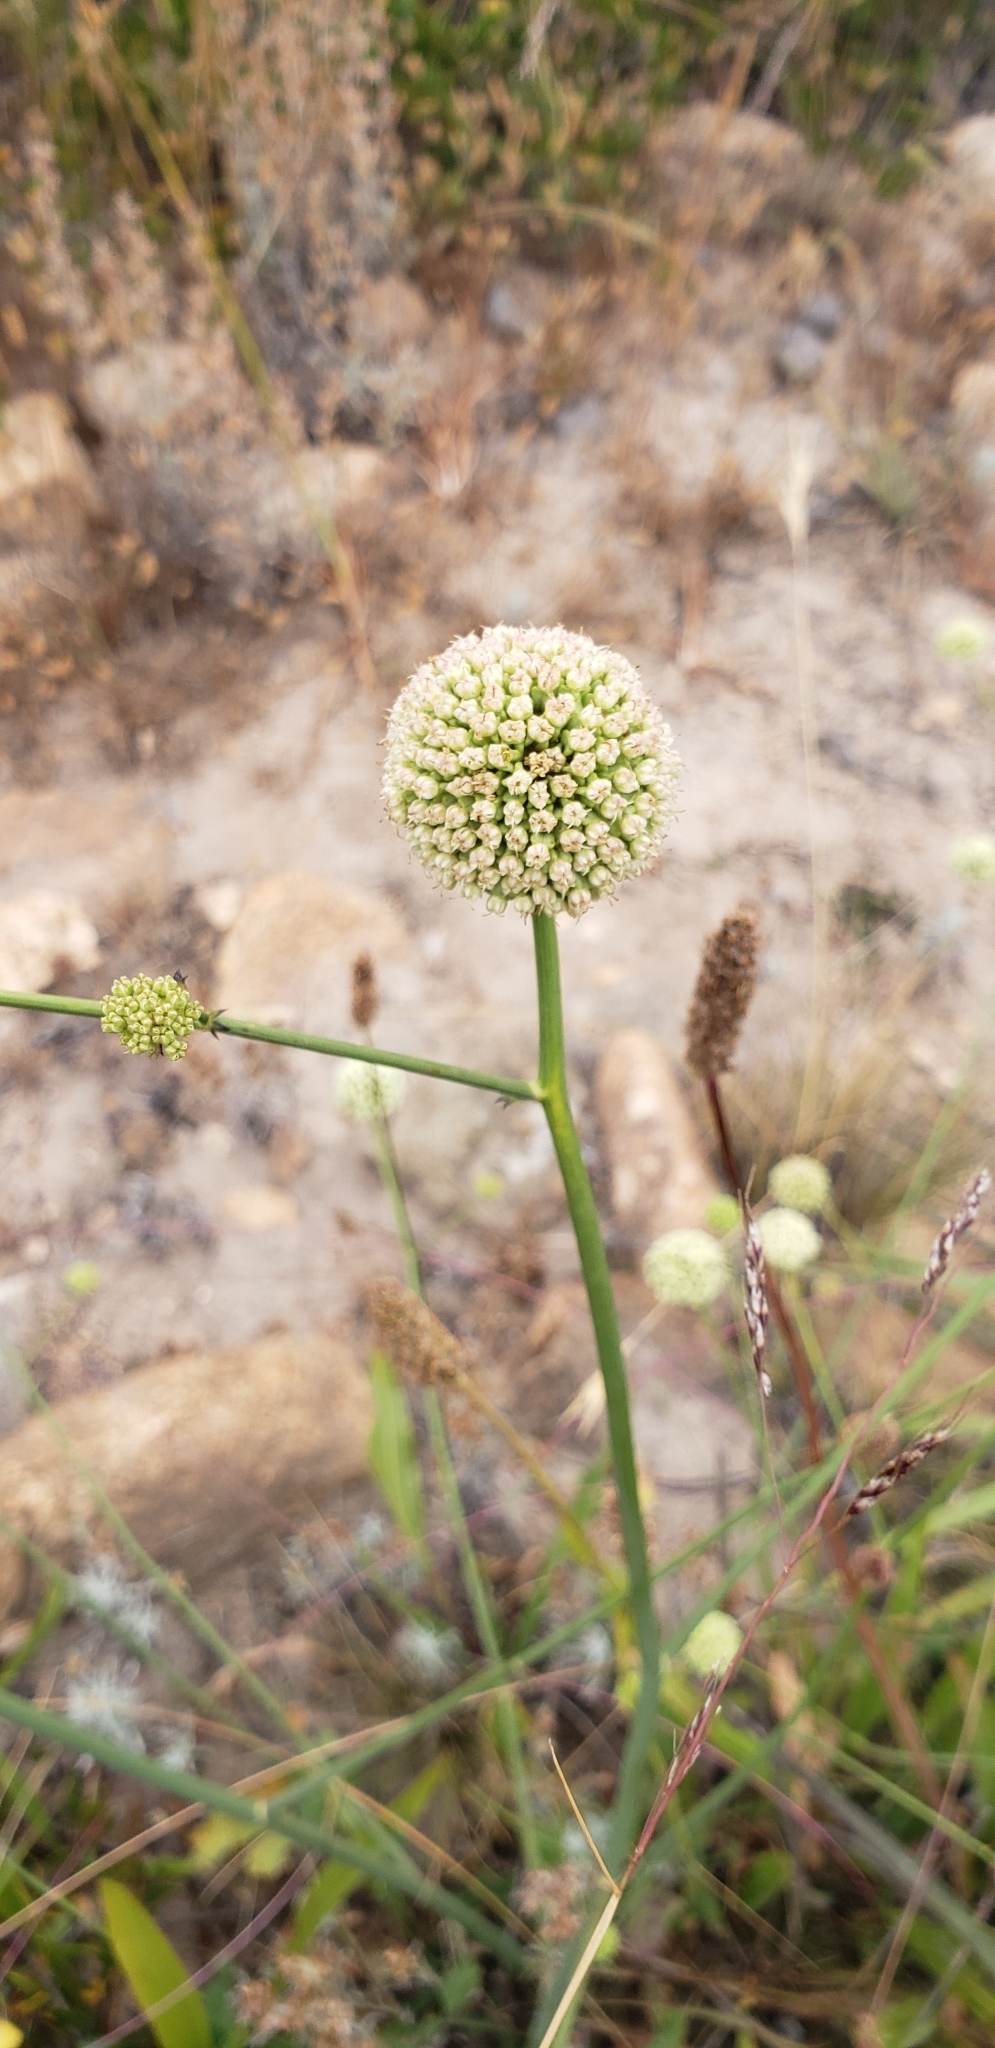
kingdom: Plantae
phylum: Tracheophyta
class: Magnoliopsida
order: Apiales
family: Apiaceae
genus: Asteriscium
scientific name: Asteriscium chilense
